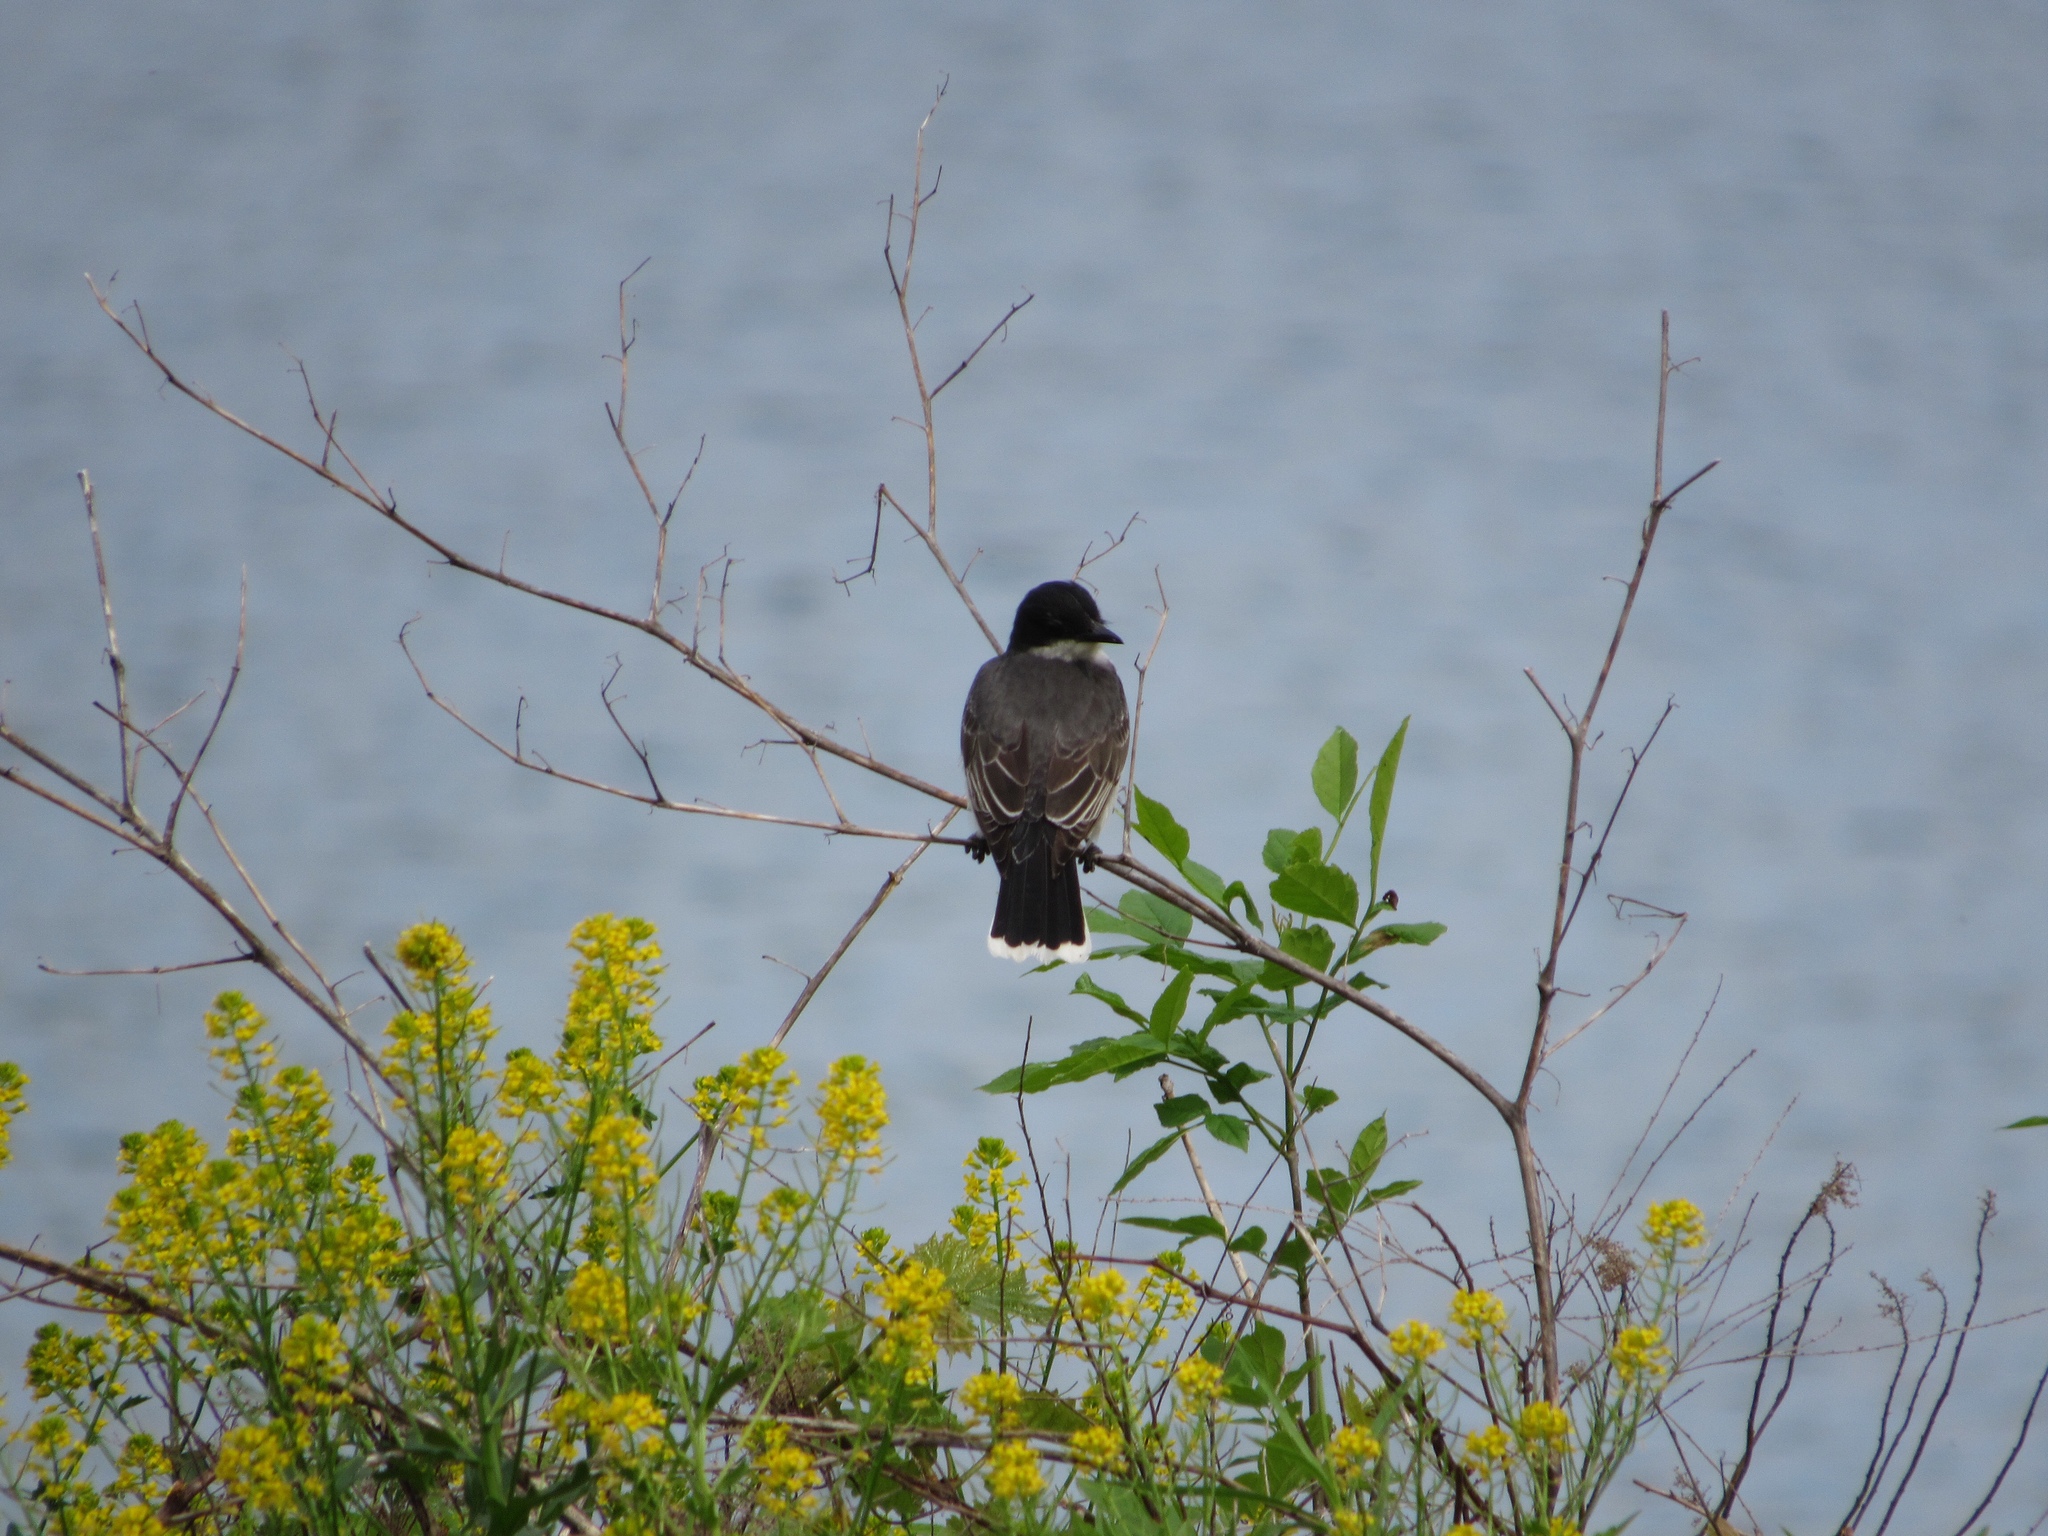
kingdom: Animalia
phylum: Chordata
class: Aves
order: Passeriformes
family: Tyrannidae
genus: Tyrannus
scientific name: Tyrannus tyrannus
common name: Eastern kingbird
